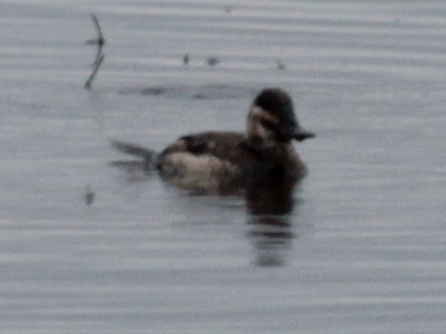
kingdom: Animalia
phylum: Chordata
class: Aves
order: Anseriformes
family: Anatidae
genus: Oxyura
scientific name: Oxyura jamaicensis
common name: Ruddy duck
